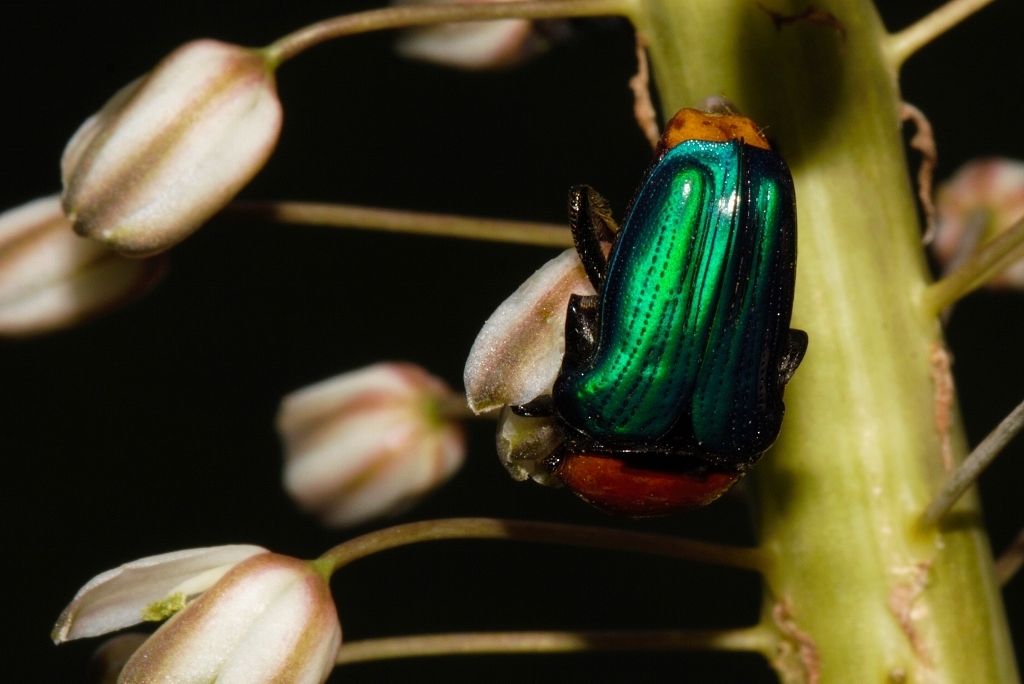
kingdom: Animalia
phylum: Arthropoda
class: Insecta
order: Coleoptera
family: Scarabaeidae
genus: Leucocelis
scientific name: Leucocelis amethystina
